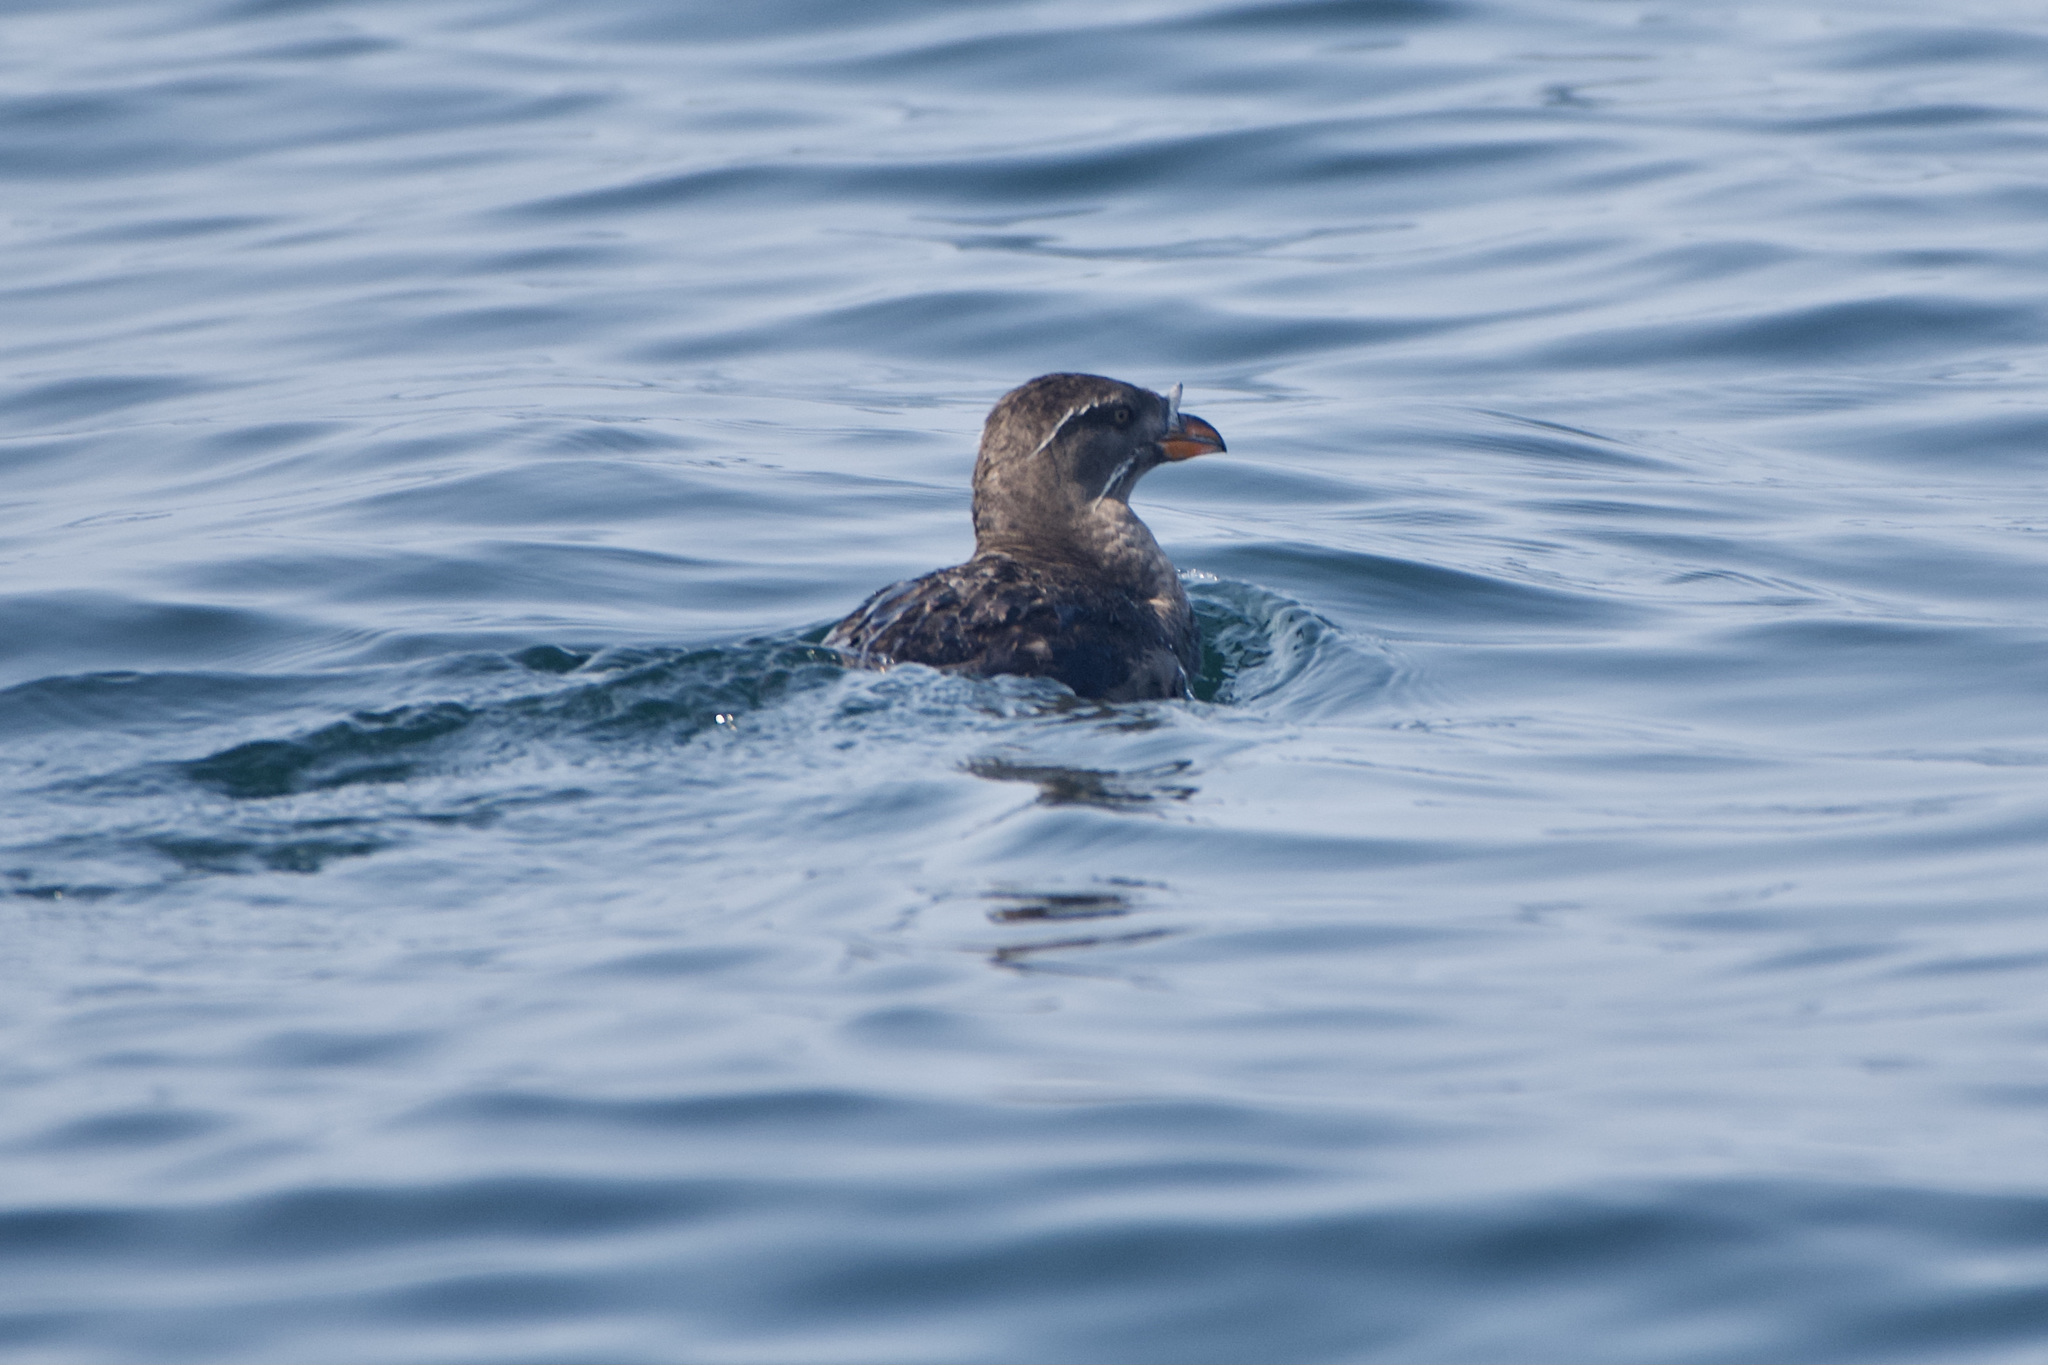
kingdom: Animalia
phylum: Chordata
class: Aves
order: Charadriiformes
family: Alcidae
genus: Cerorhinca
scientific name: Cerorhinca monocerata
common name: Rhinoceros auklet
